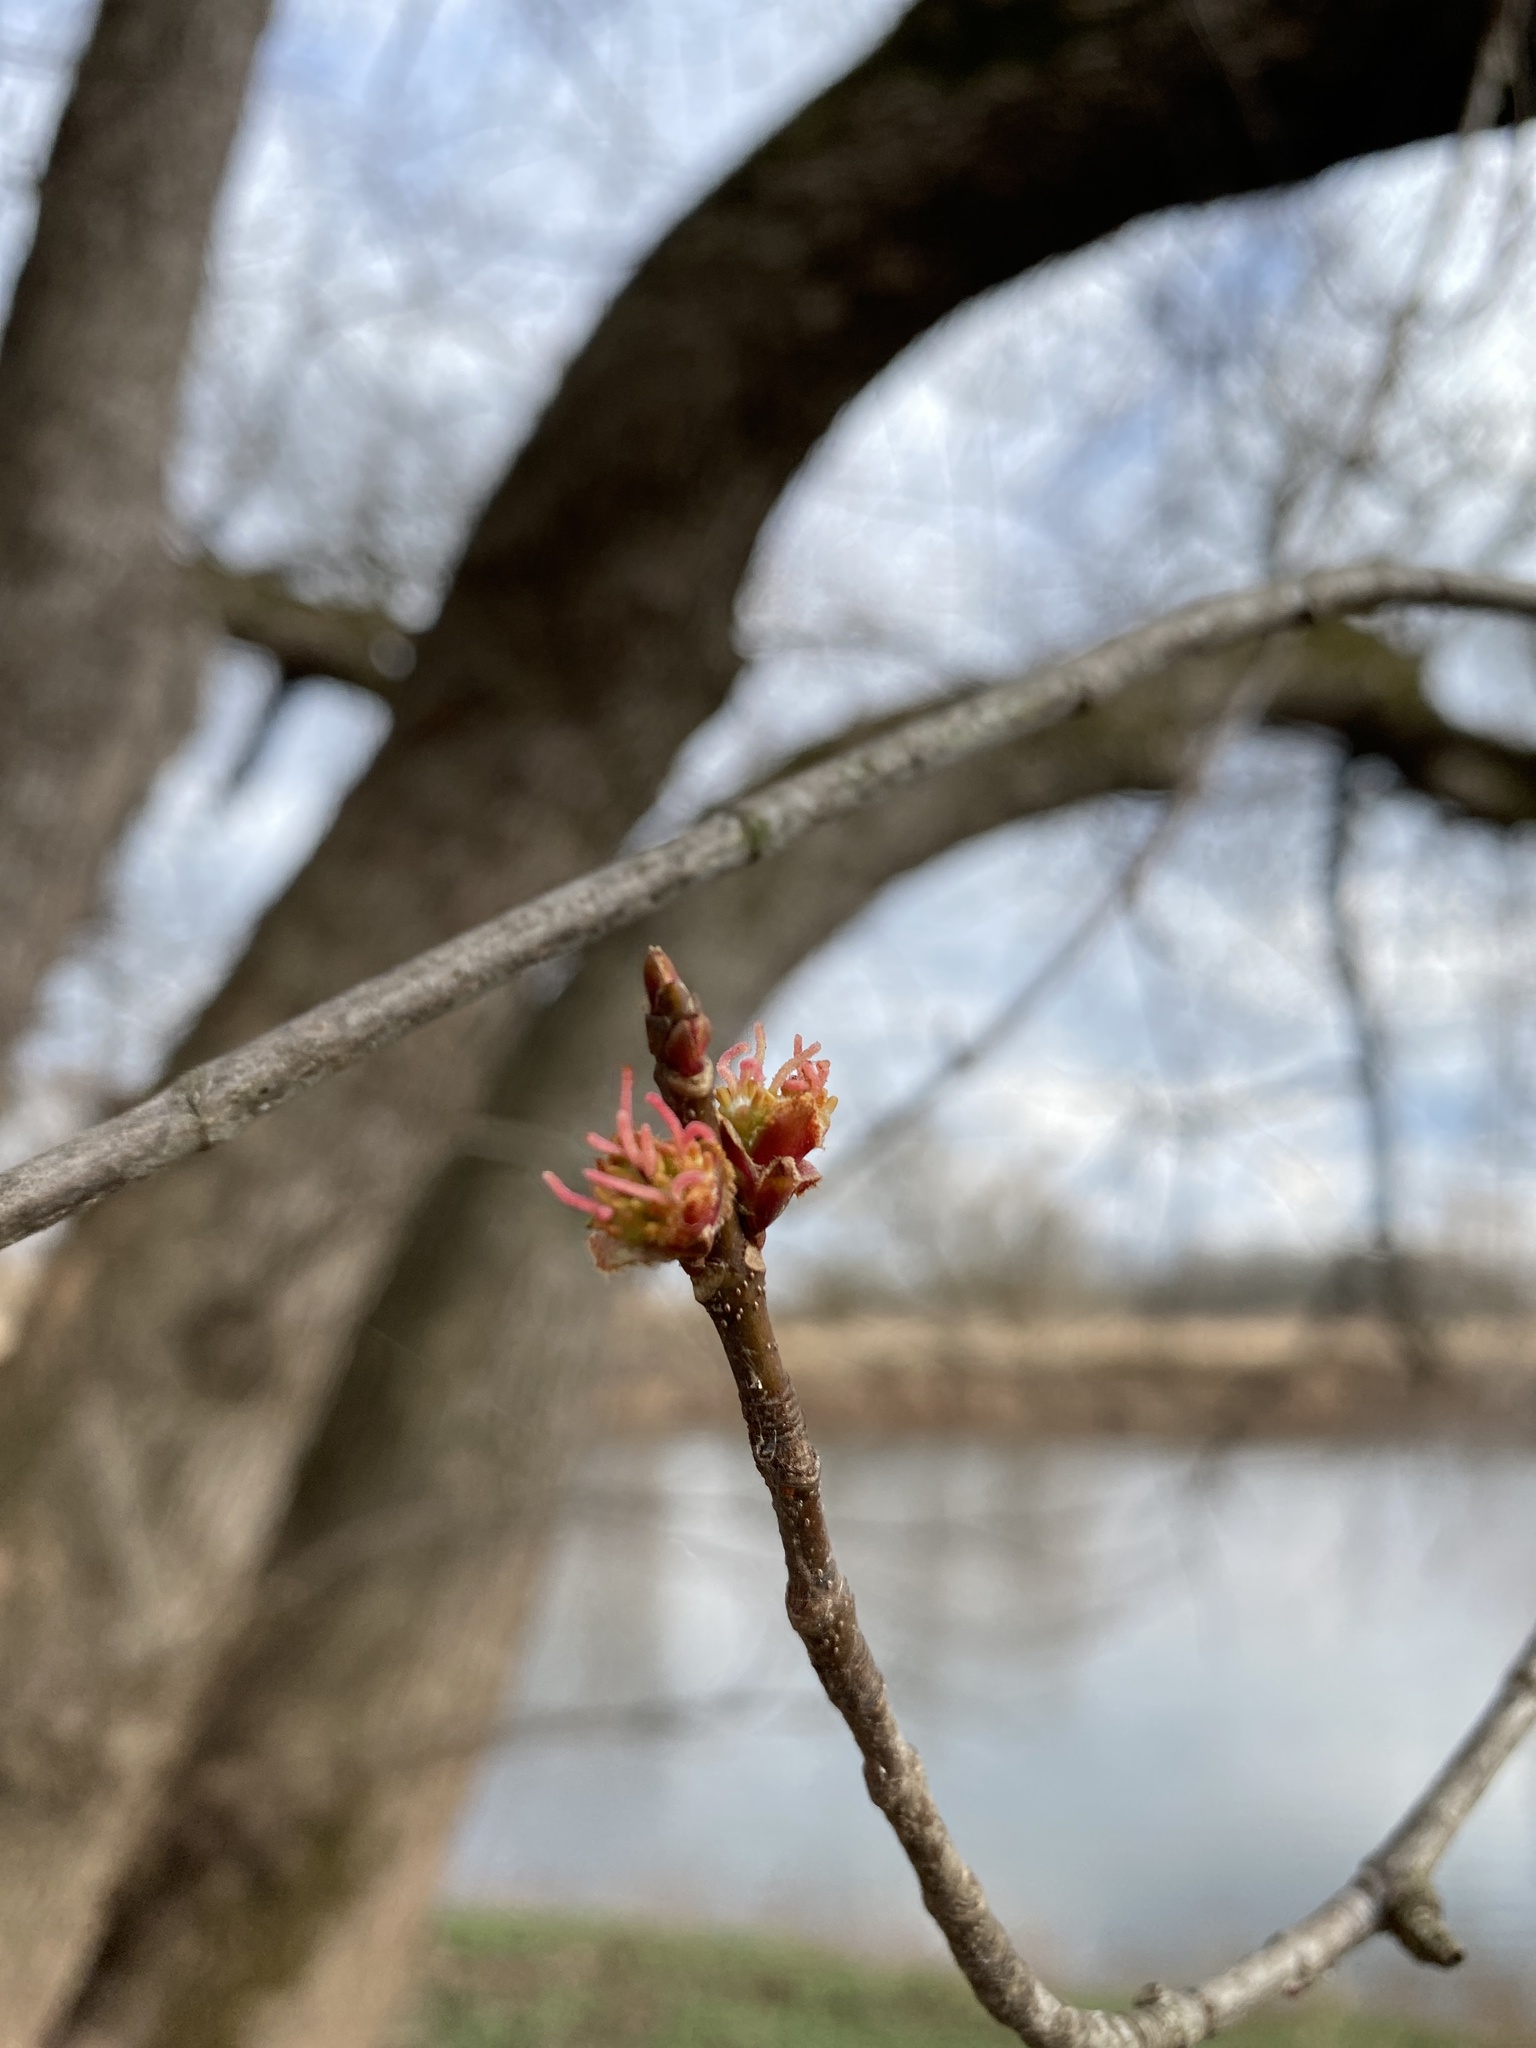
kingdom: Plantae
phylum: Tracheophyta
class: Magnoliopsida
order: Sapindales
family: Sapindaceae
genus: Acer
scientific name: Acer saccharinum
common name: Silver maple
